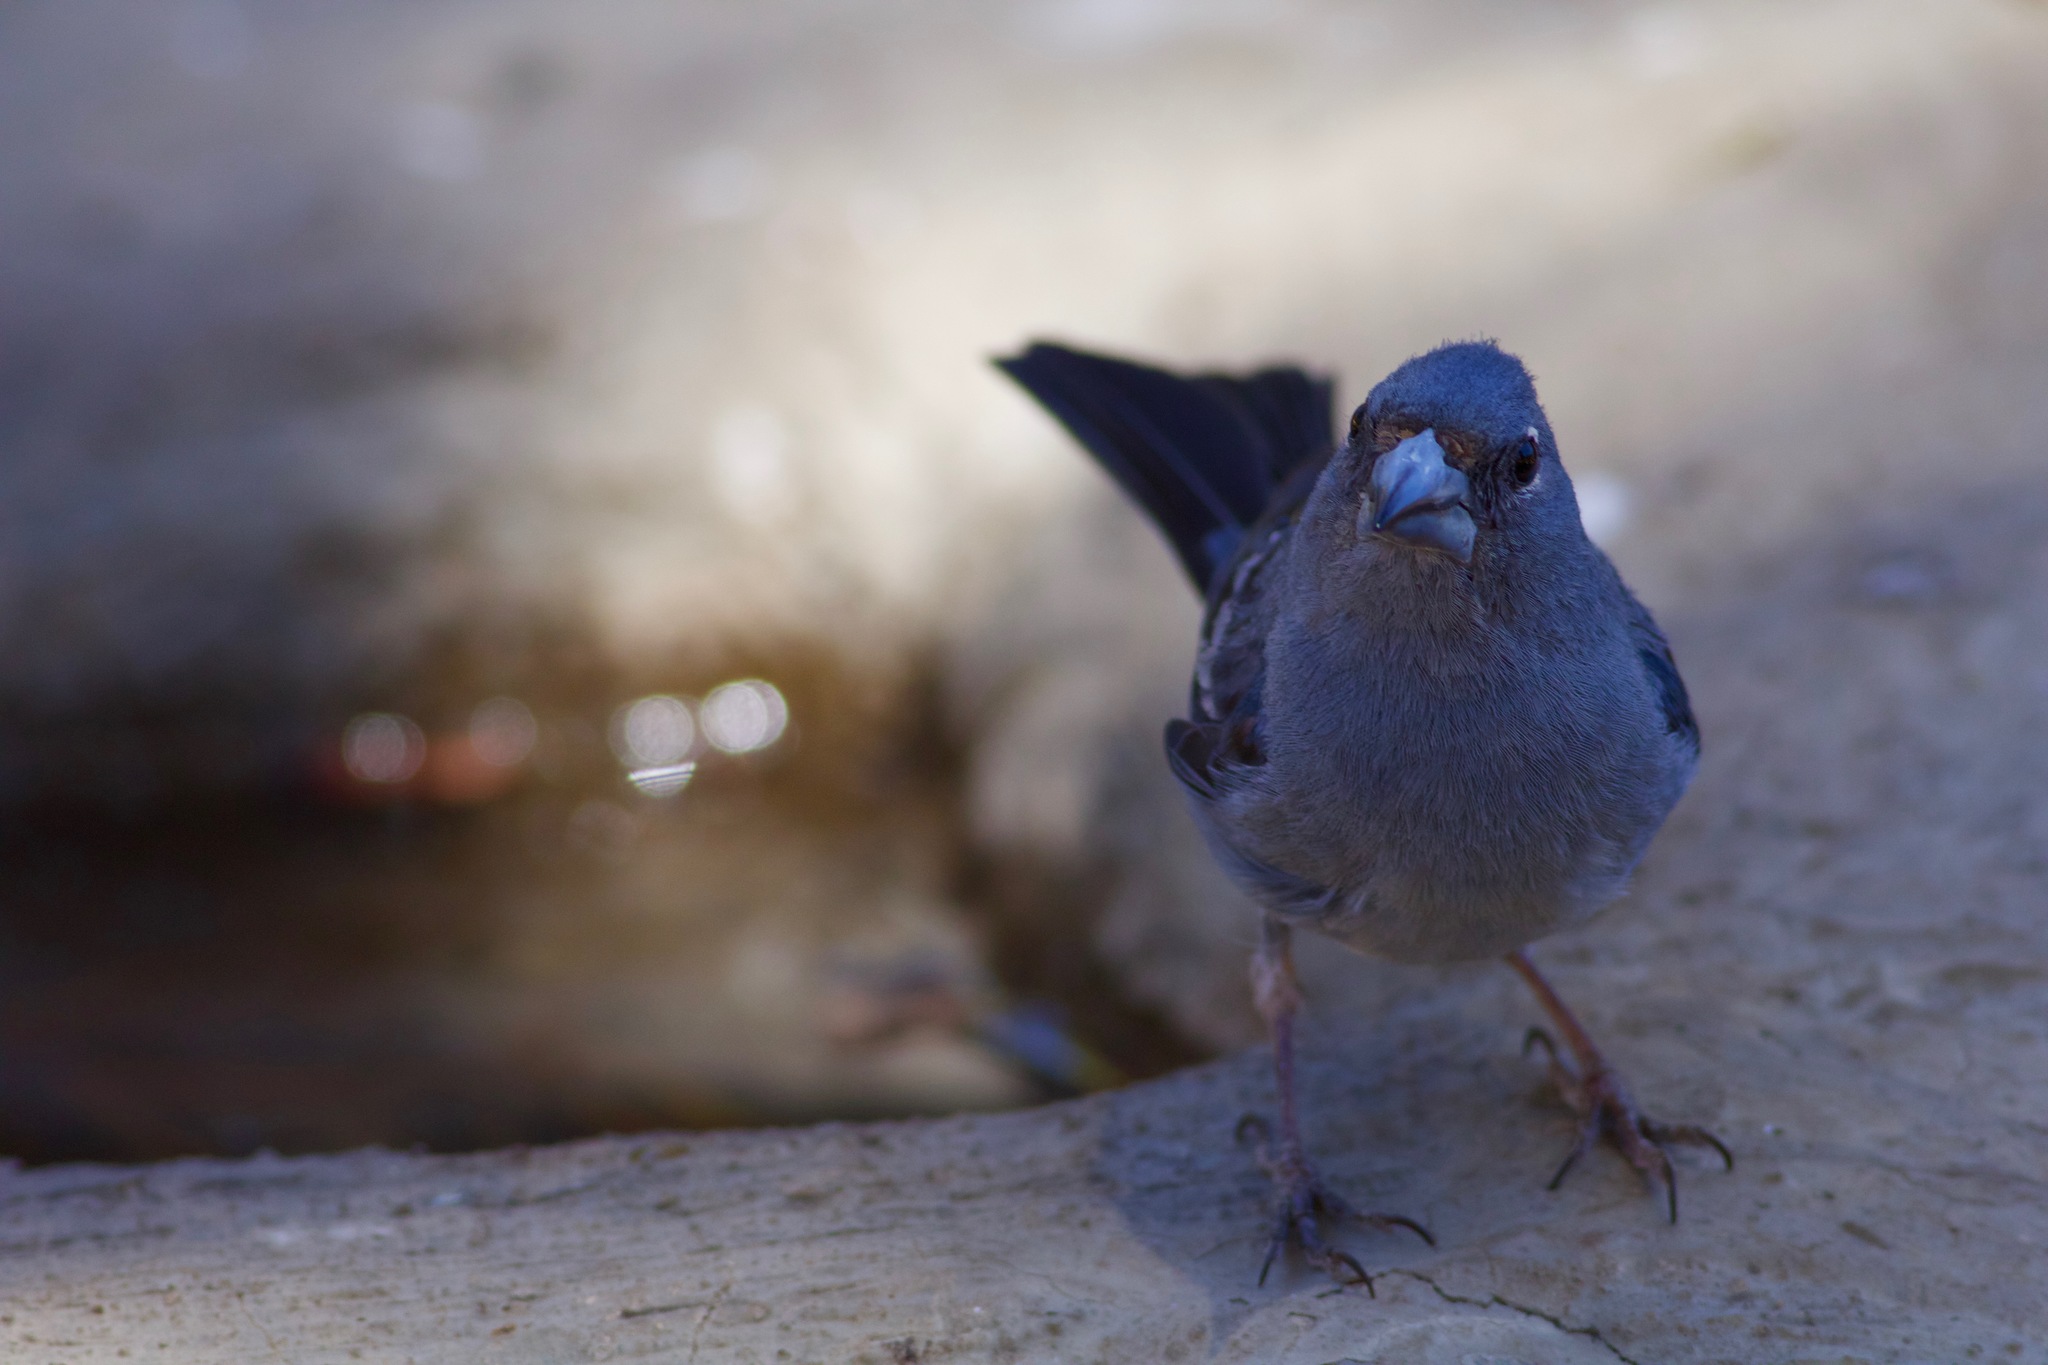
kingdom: Animalia
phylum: Chordata
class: Aves
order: Passeriformes
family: Fringillidae
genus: Fringilla
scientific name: Fringilla teydea
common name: Blue chaffinch
